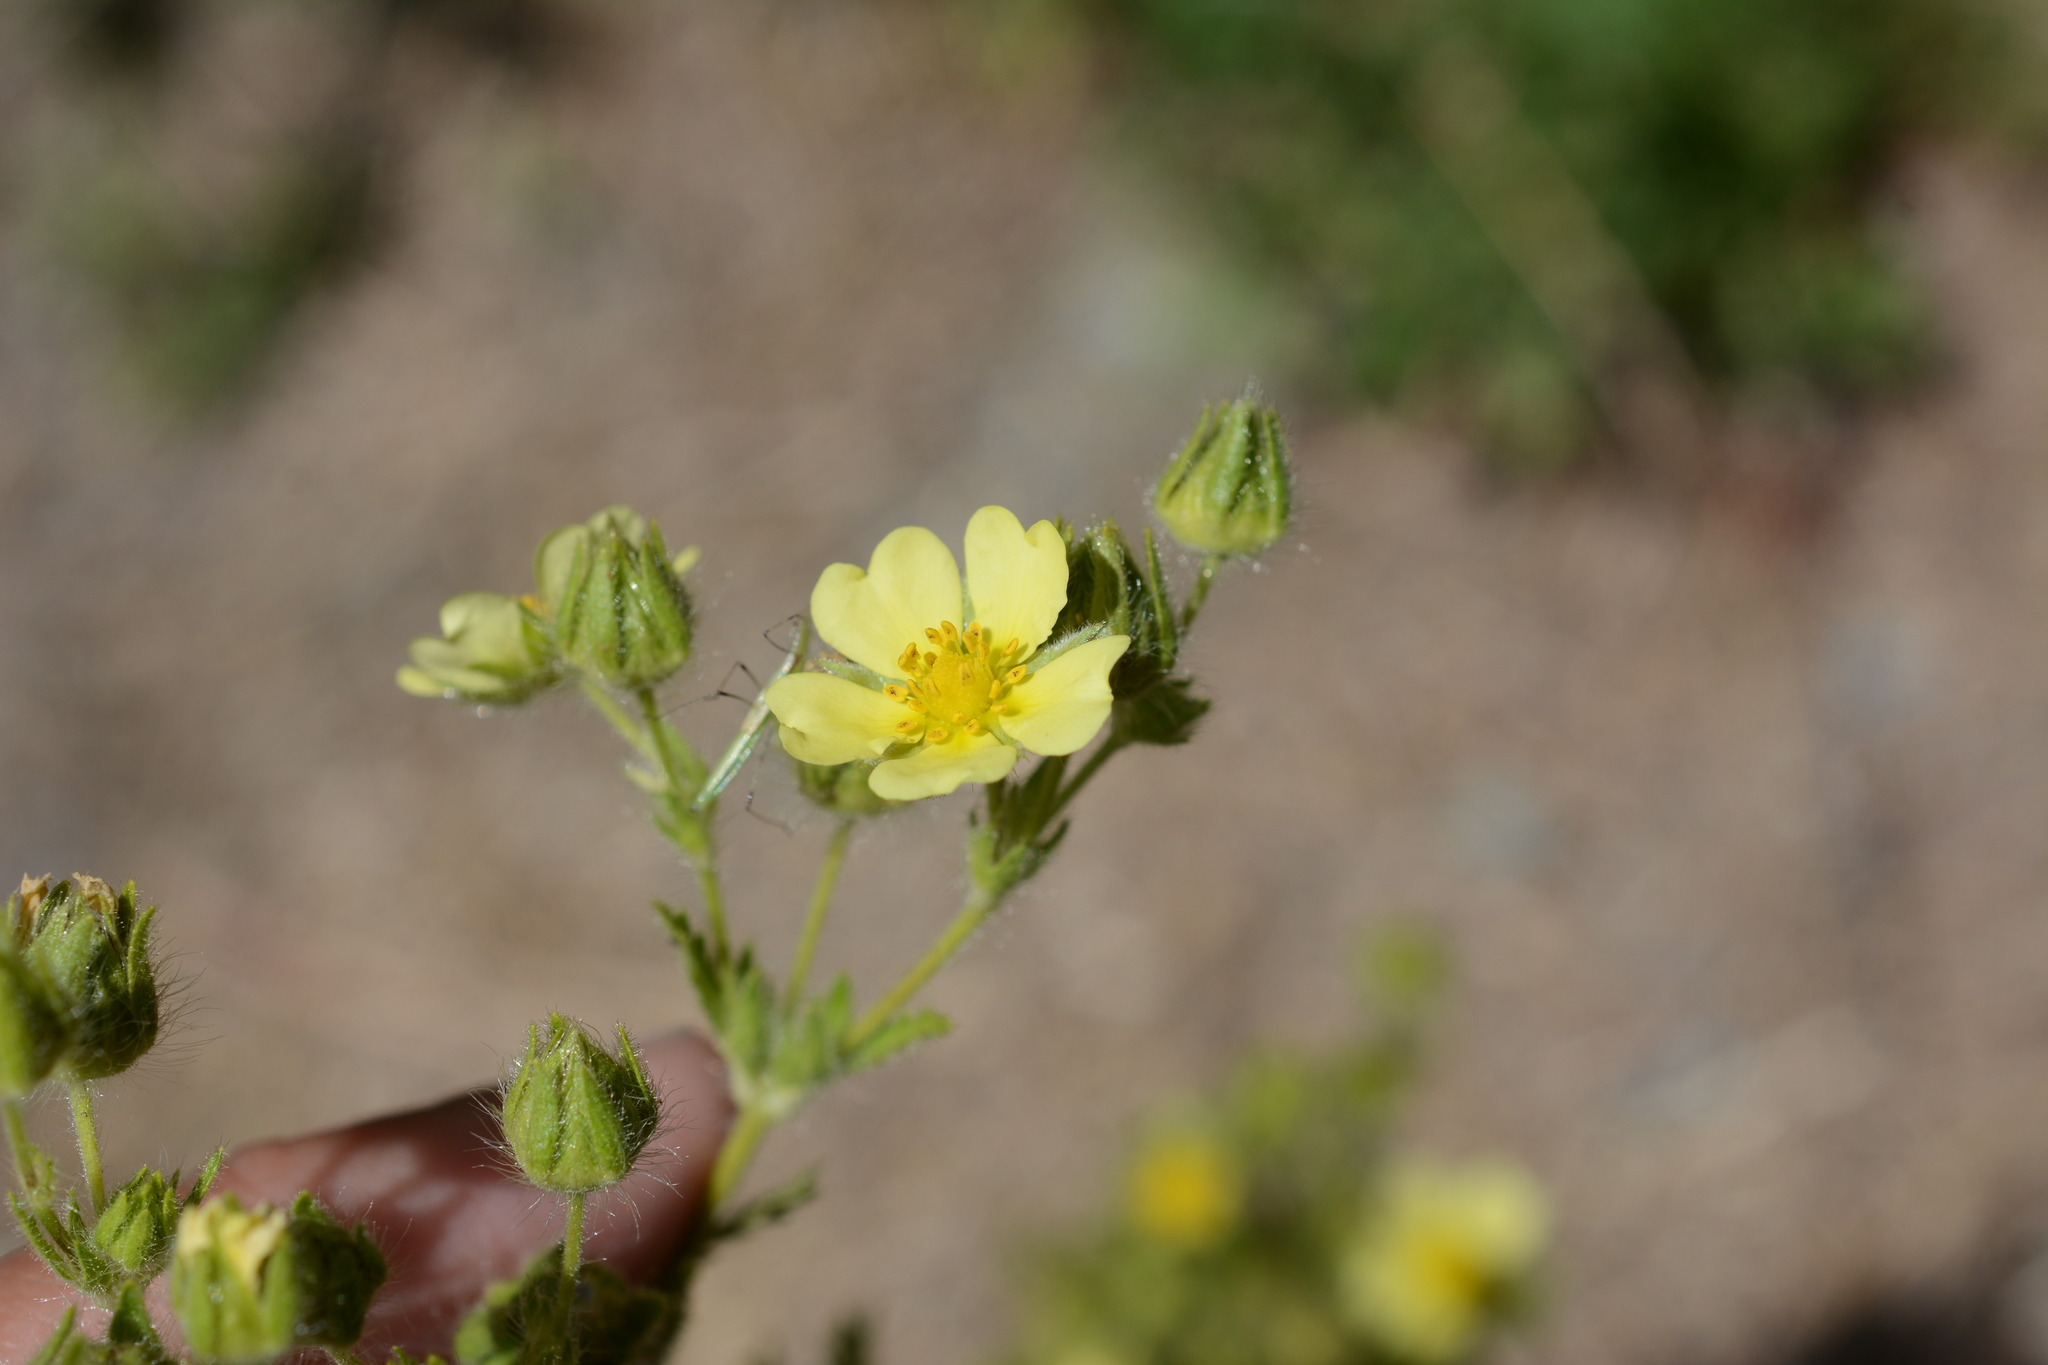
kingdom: Plantae
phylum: Tracheophyta
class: Magnoliopsida
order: Rosales
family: Rosaceae
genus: Potentilla
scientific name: Potentilla recta
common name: Sulphur cinquefoil
